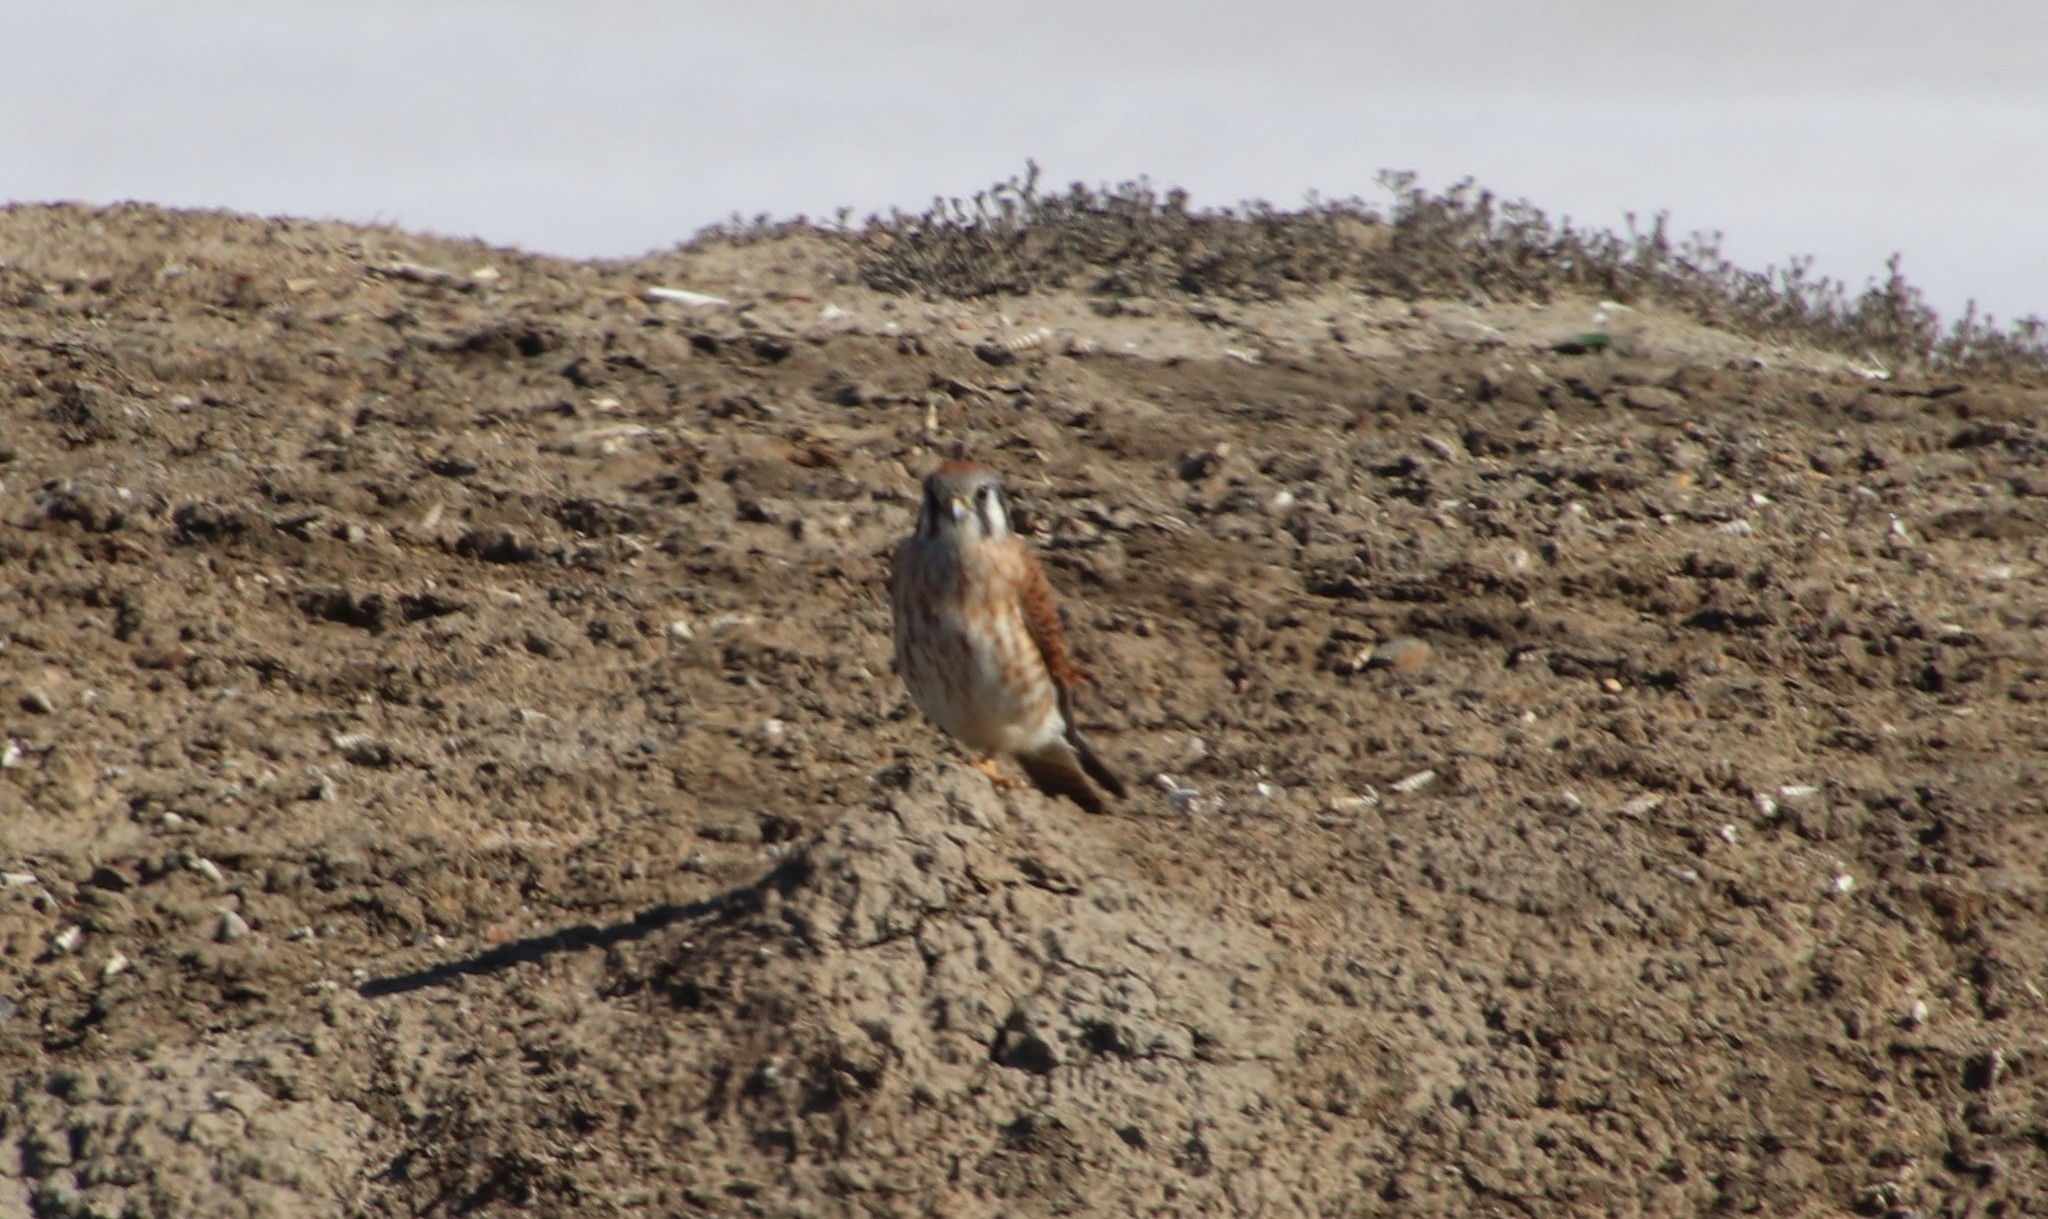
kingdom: Animalia
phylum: Chordata
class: Aves
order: Falconiformes
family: Falconidae
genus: Falco
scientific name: Falco sparverius
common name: American kestrel
